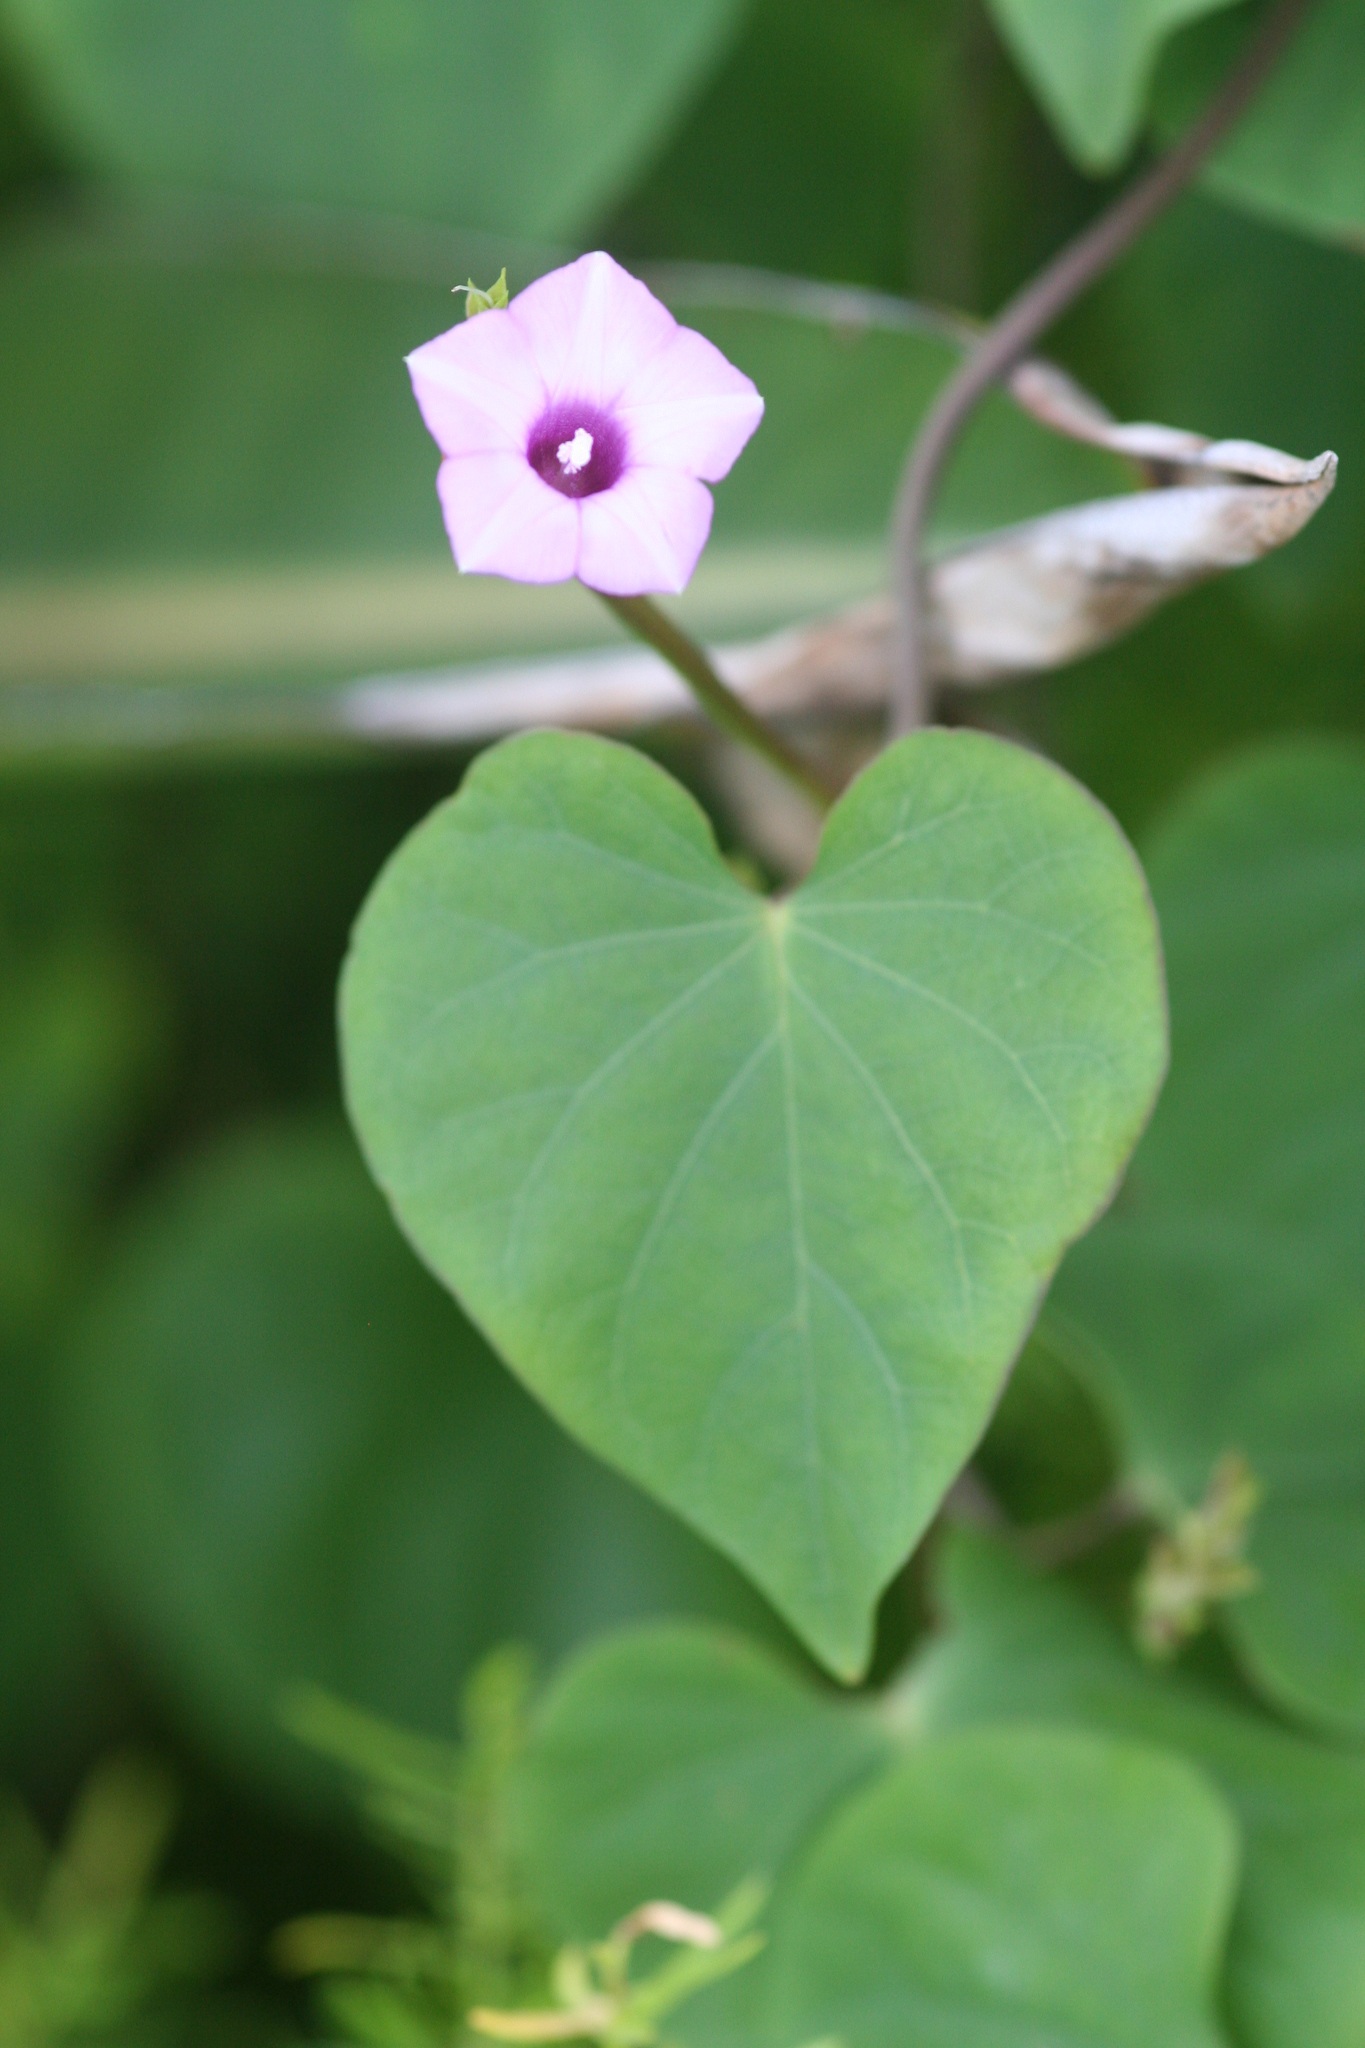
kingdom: Plantae
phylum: Tracheophyta
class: Magnoliopsida
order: Solanales
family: Convolvulaceae
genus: Ipomoea
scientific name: Ipomoea triloba
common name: Little-bell
